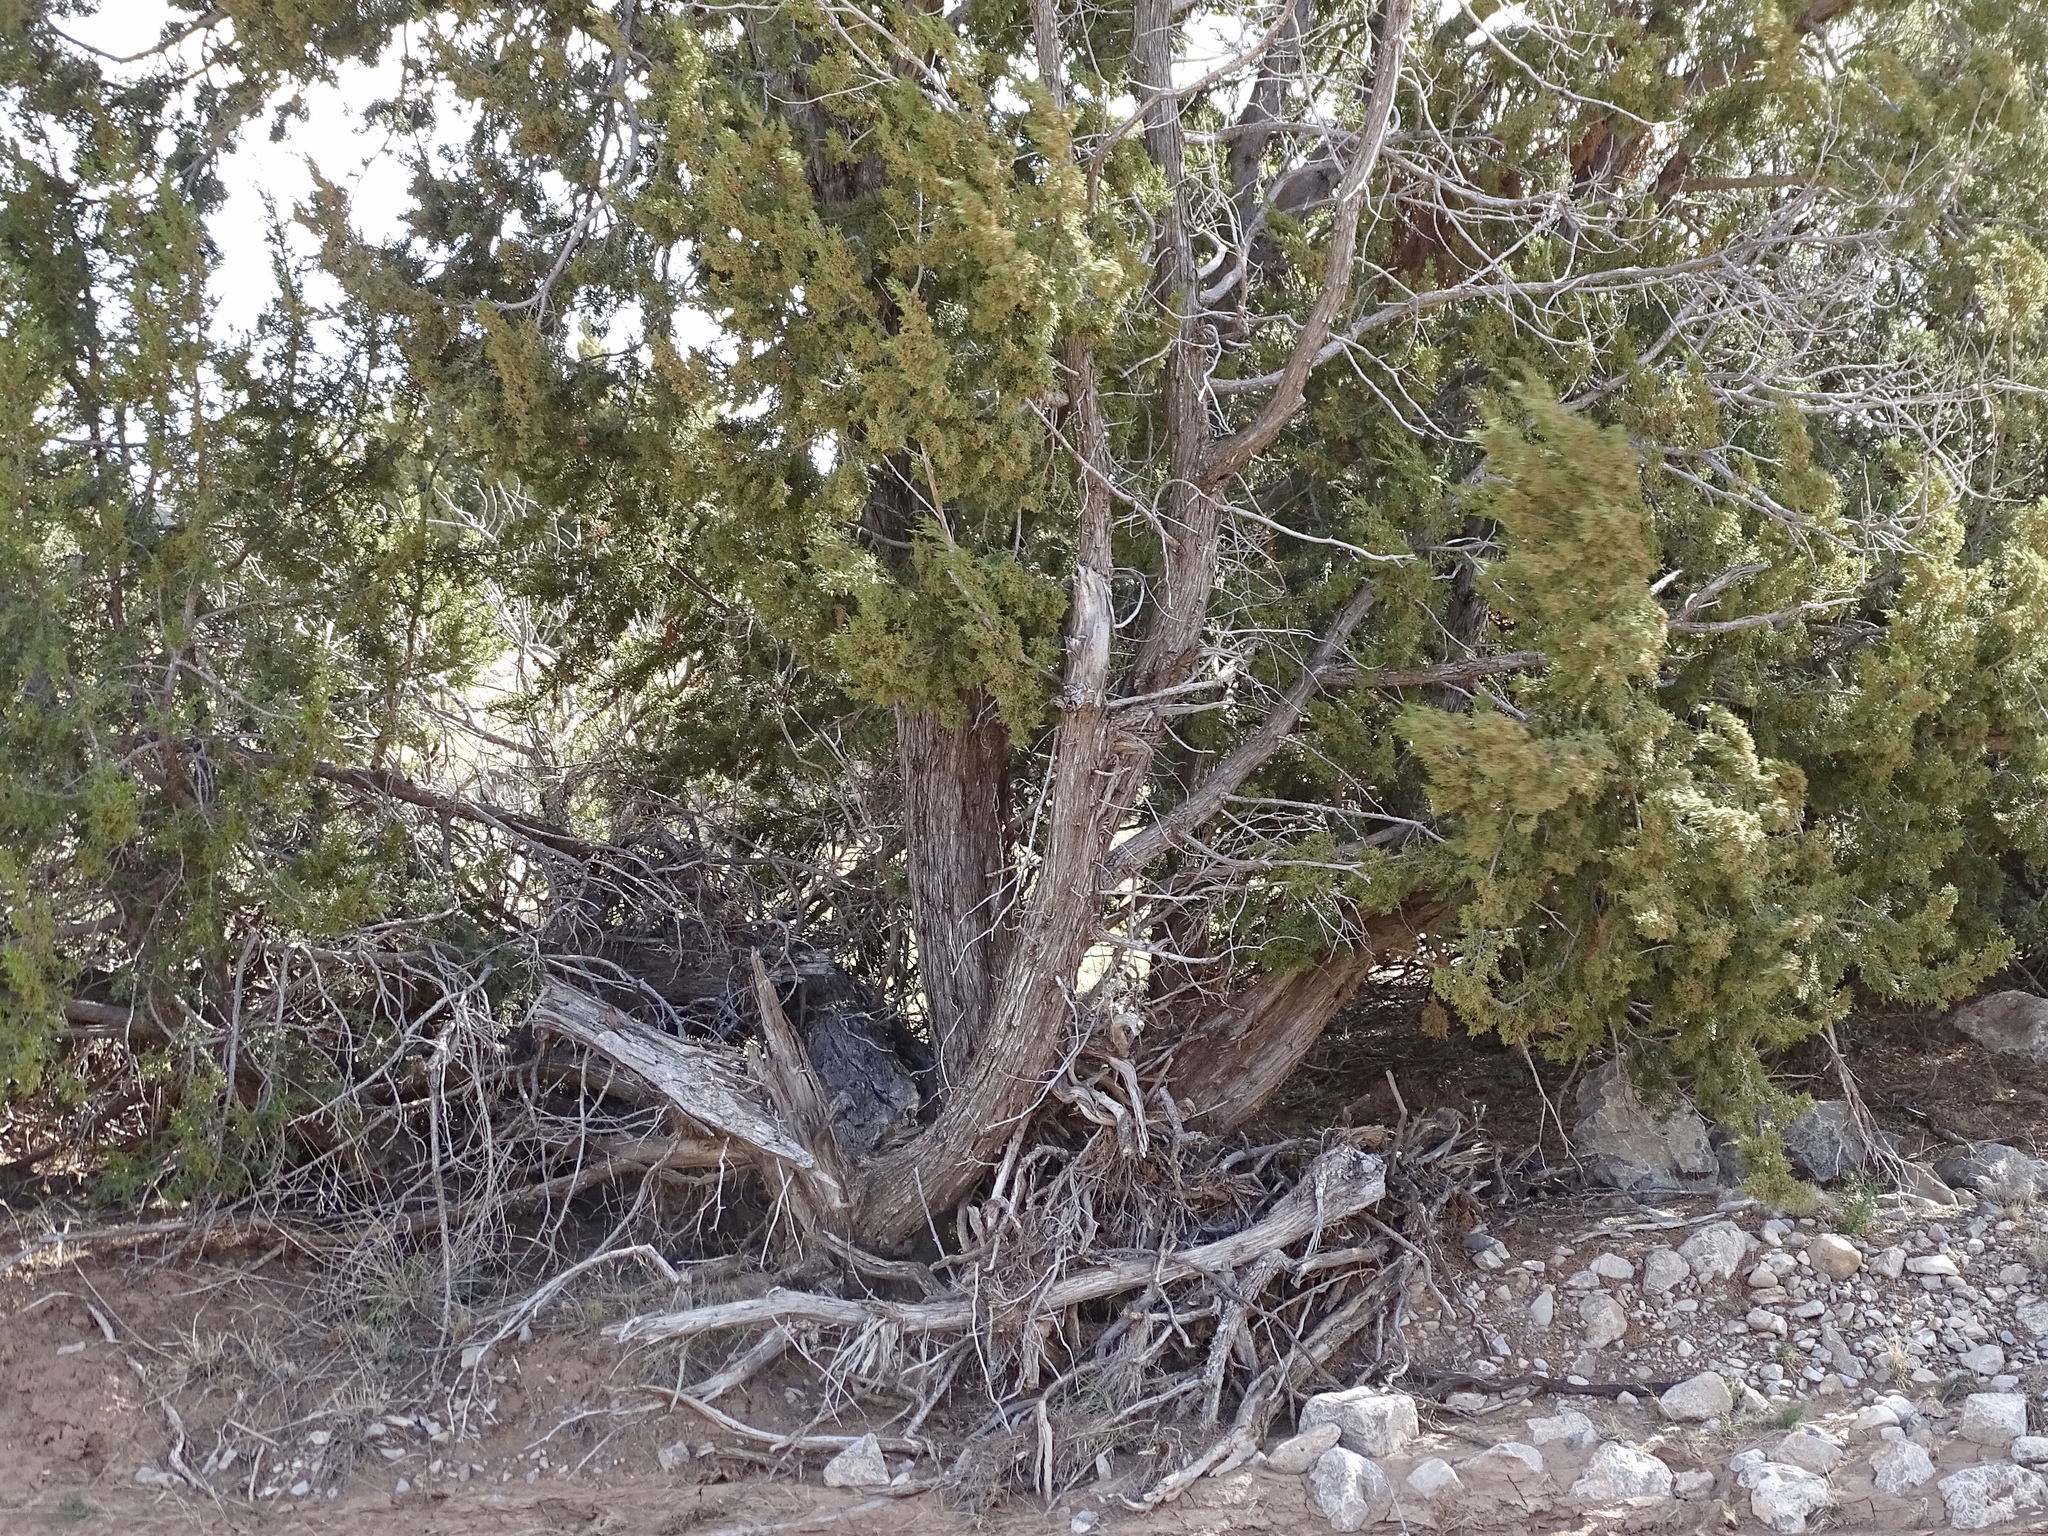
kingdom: Plantae
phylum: Tracheophyta
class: Pinopsida
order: Pinales
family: Cupressaceae
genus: Juniperus
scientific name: Juniperus monosperma
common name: One-seed juniper
